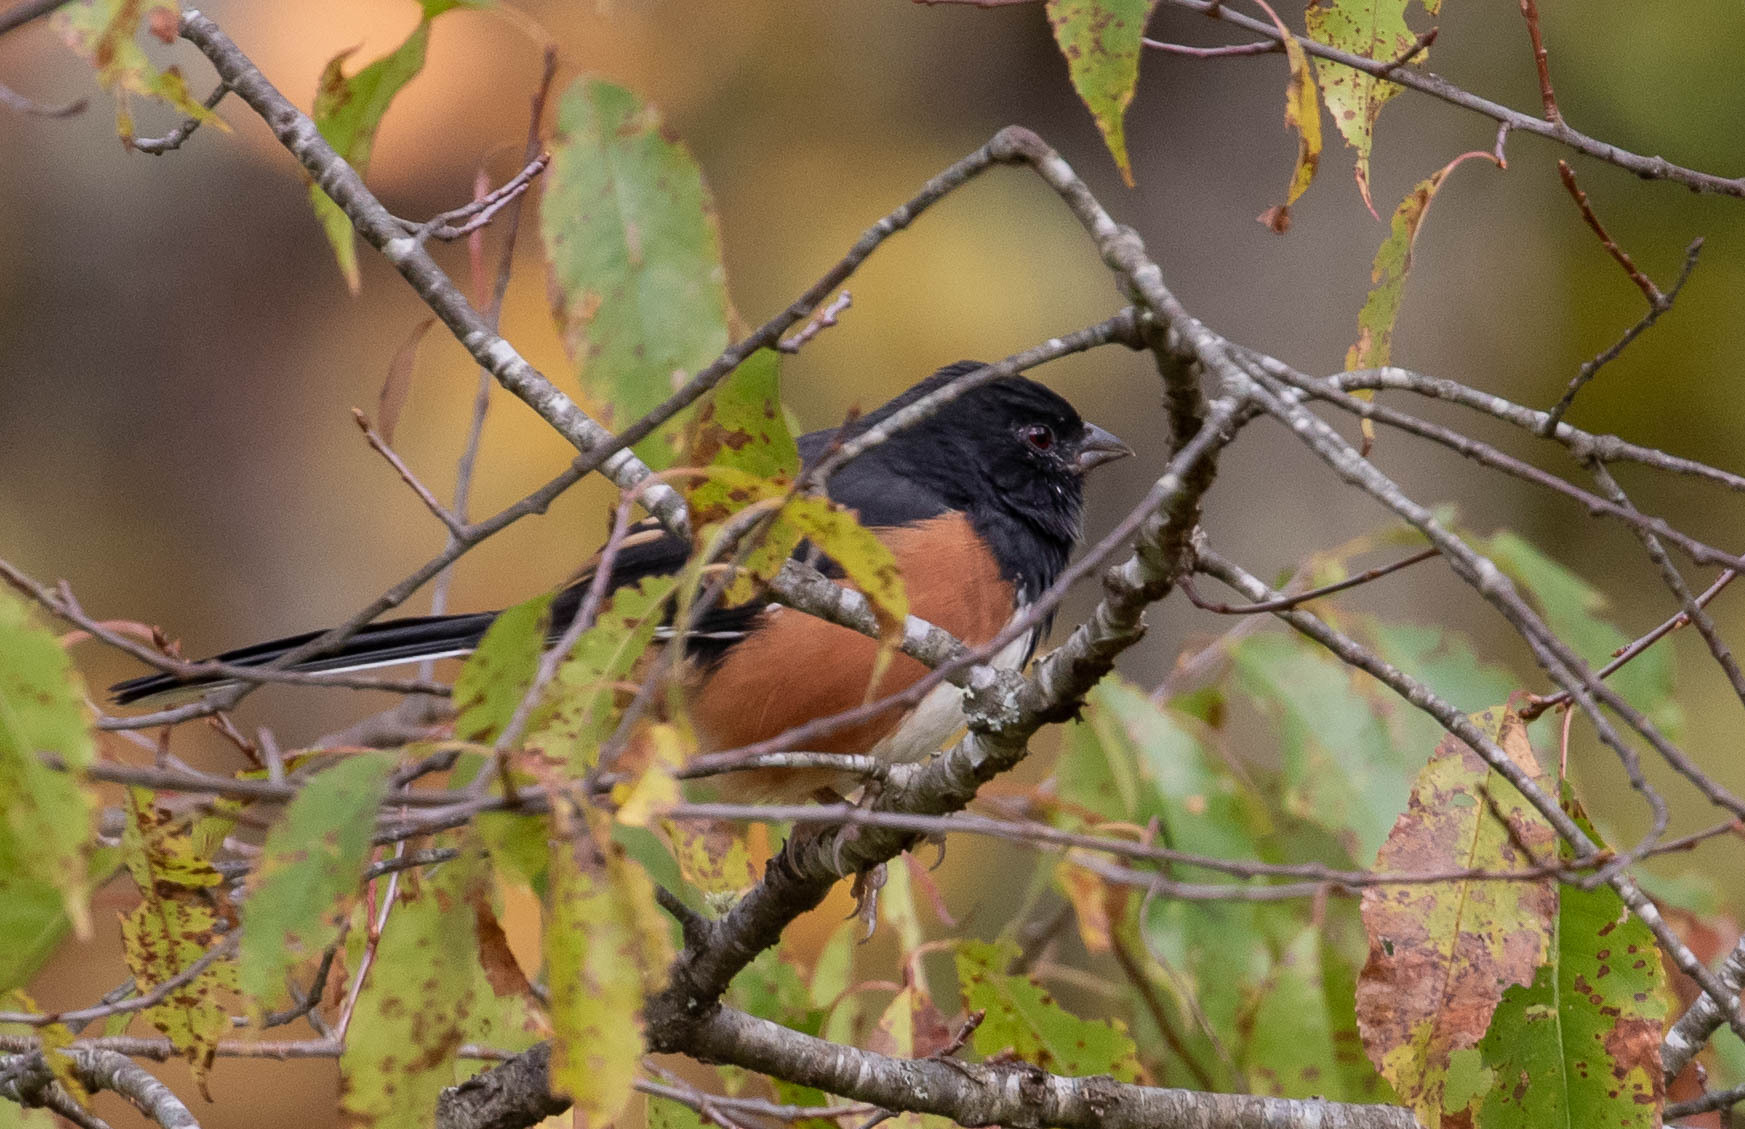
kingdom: Animalia
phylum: Chordata
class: Aves
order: Passeriformes
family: Passerellidae
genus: Pipilo
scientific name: Pipilo erythrophthalmus
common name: Eastern towhee
